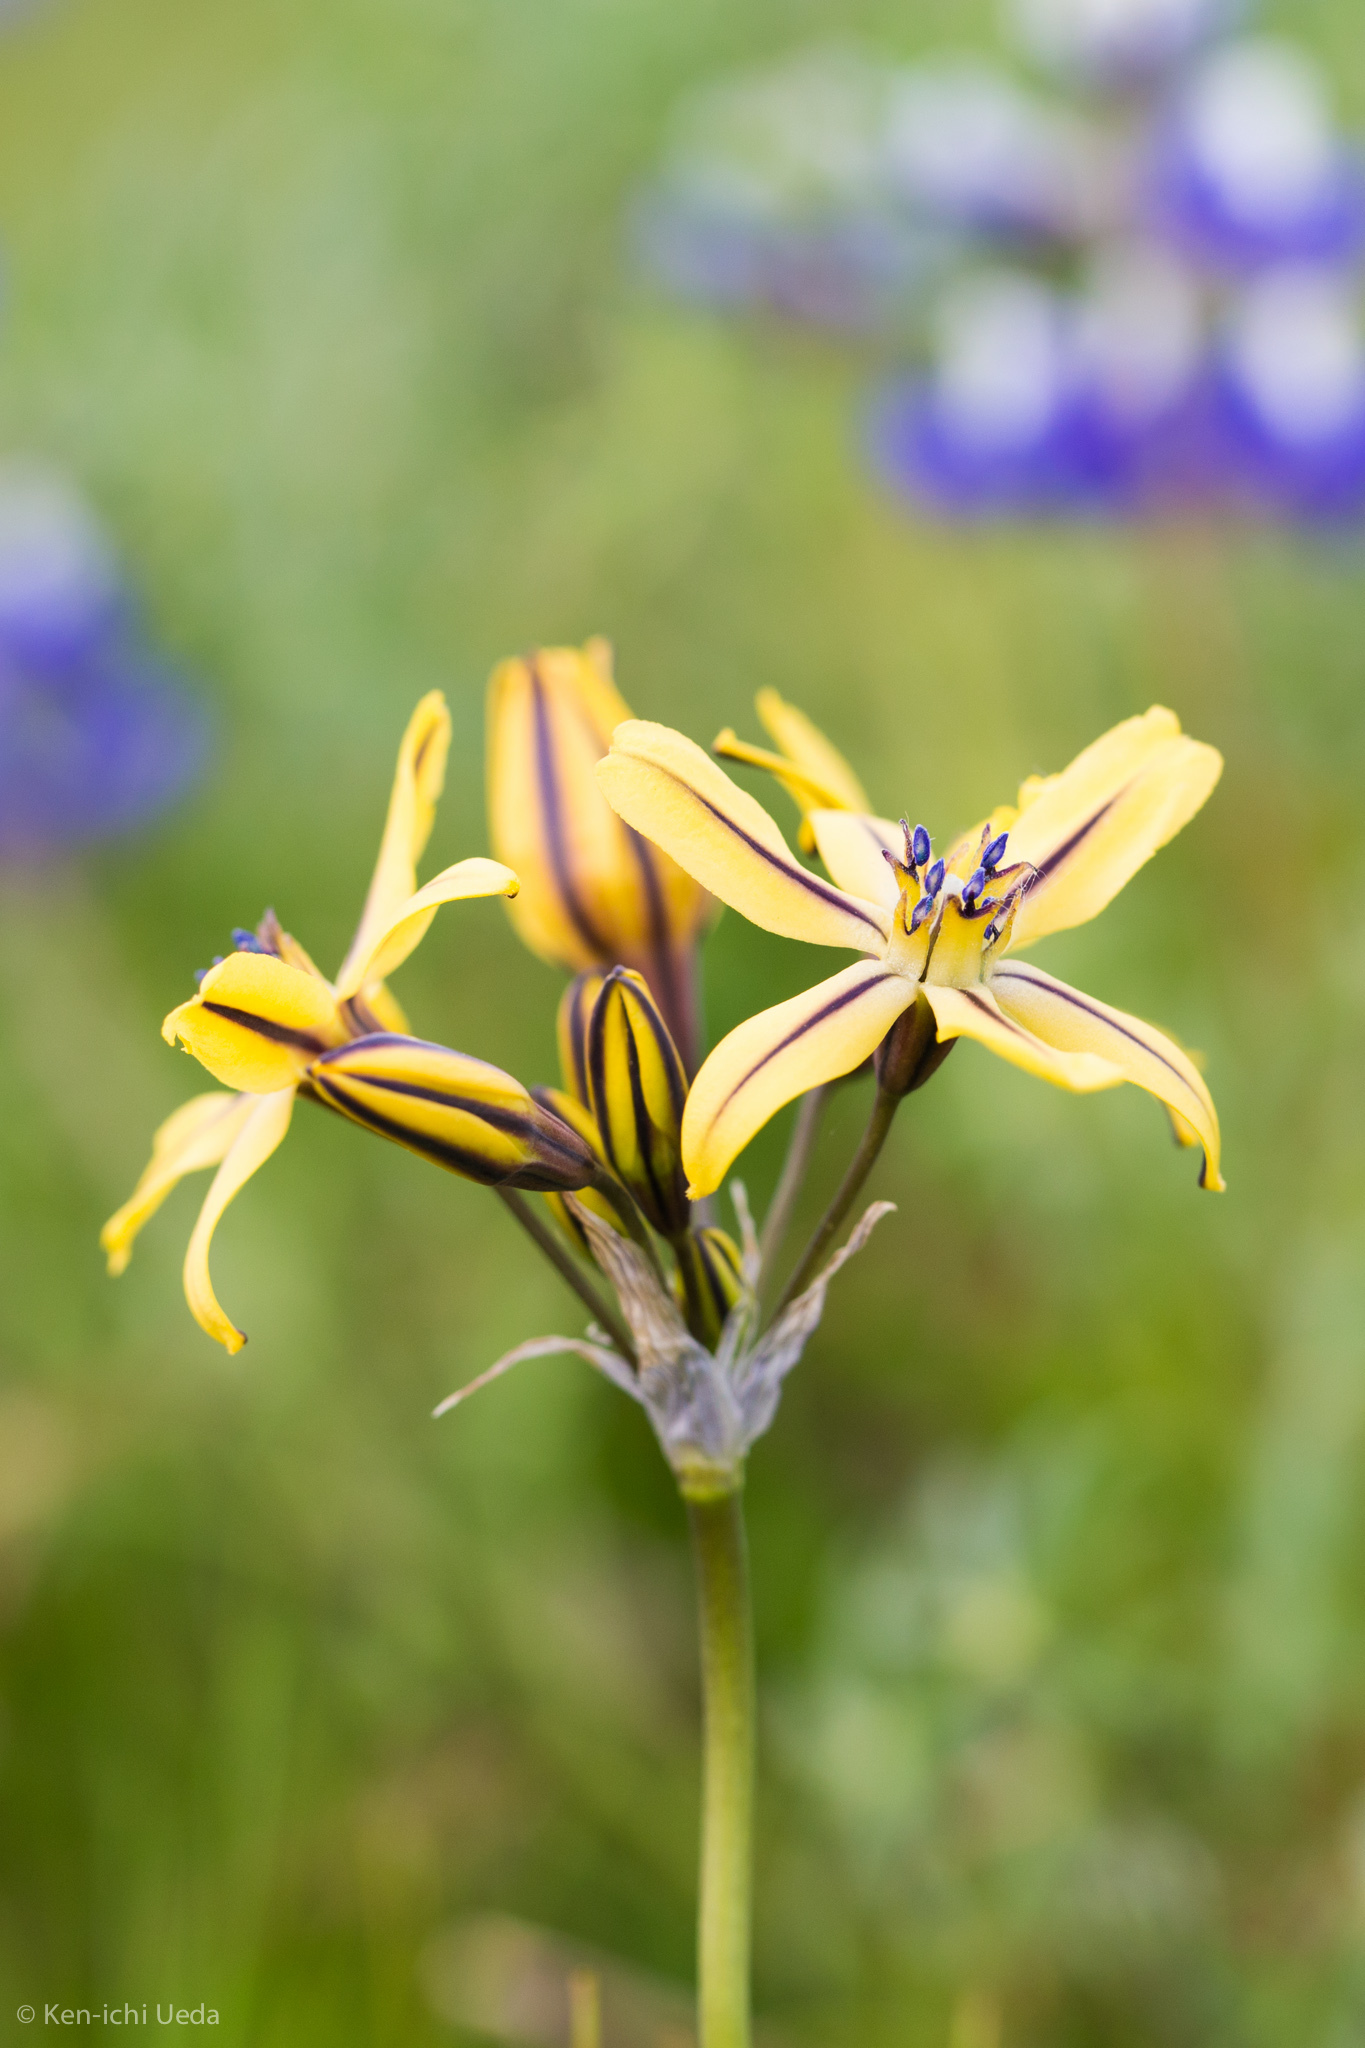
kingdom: Plantae
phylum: Tracheophyta
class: Liliopsida
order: Asparagales
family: Asparagaceae
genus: Triteleia
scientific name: Triteleia ixioides
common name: Yellow-brodiaea
